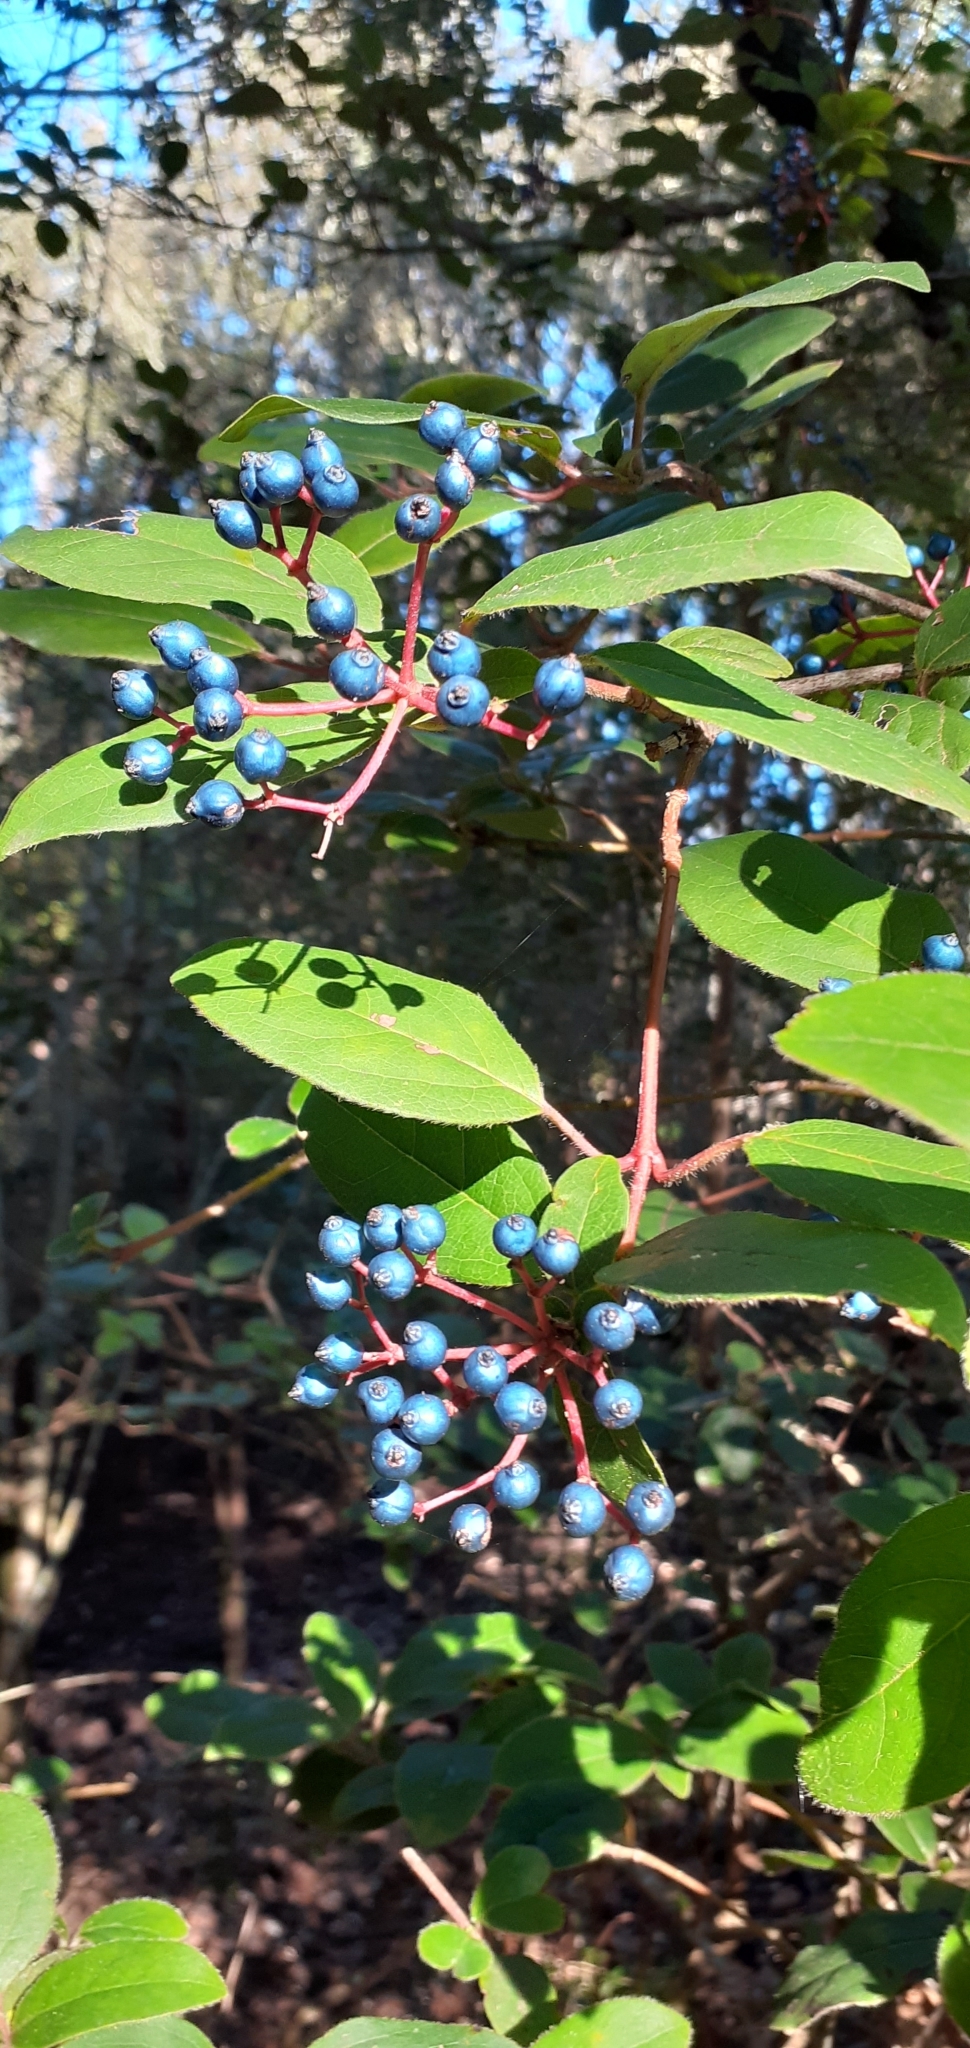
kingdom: Plantae
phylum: Tracheophyta
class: Magnoliopsida
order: Dipsacales
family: Viburnaceae
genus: Viburnum
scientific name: Viburnum tinus
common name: Laurustinus
